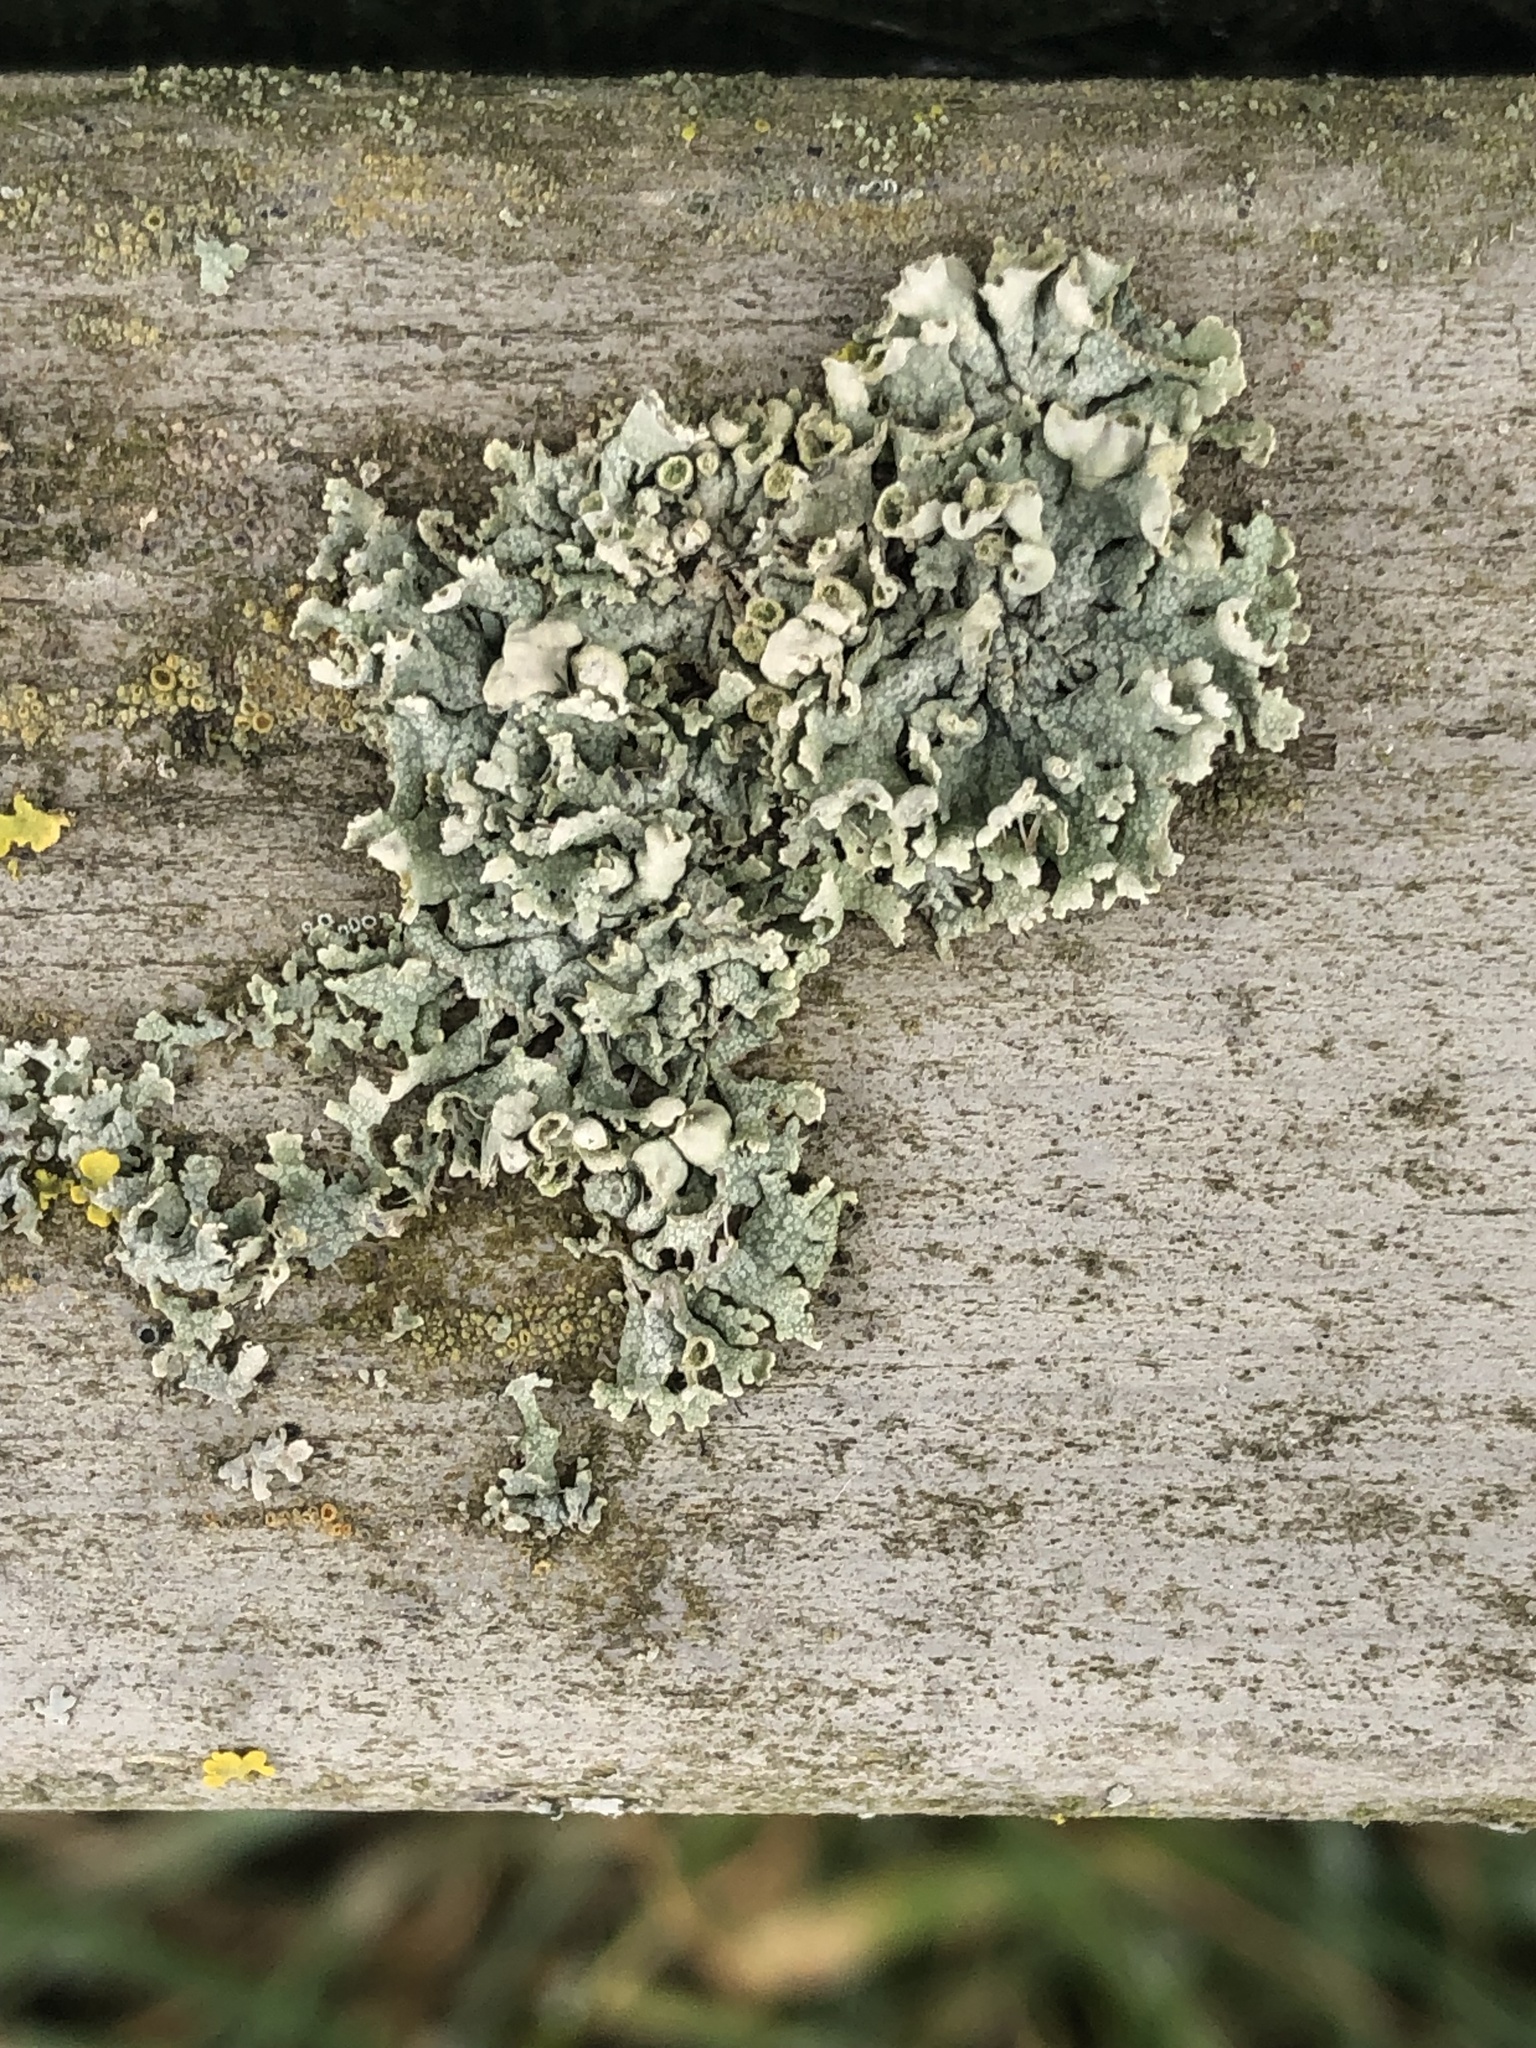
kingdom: Fungi
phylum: Ascomycota
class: Lecanoromycetes
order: Caliciales
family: Physciaceae
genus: Physcia
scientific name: Physcia adscendens
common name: Hooded rosette lichen
